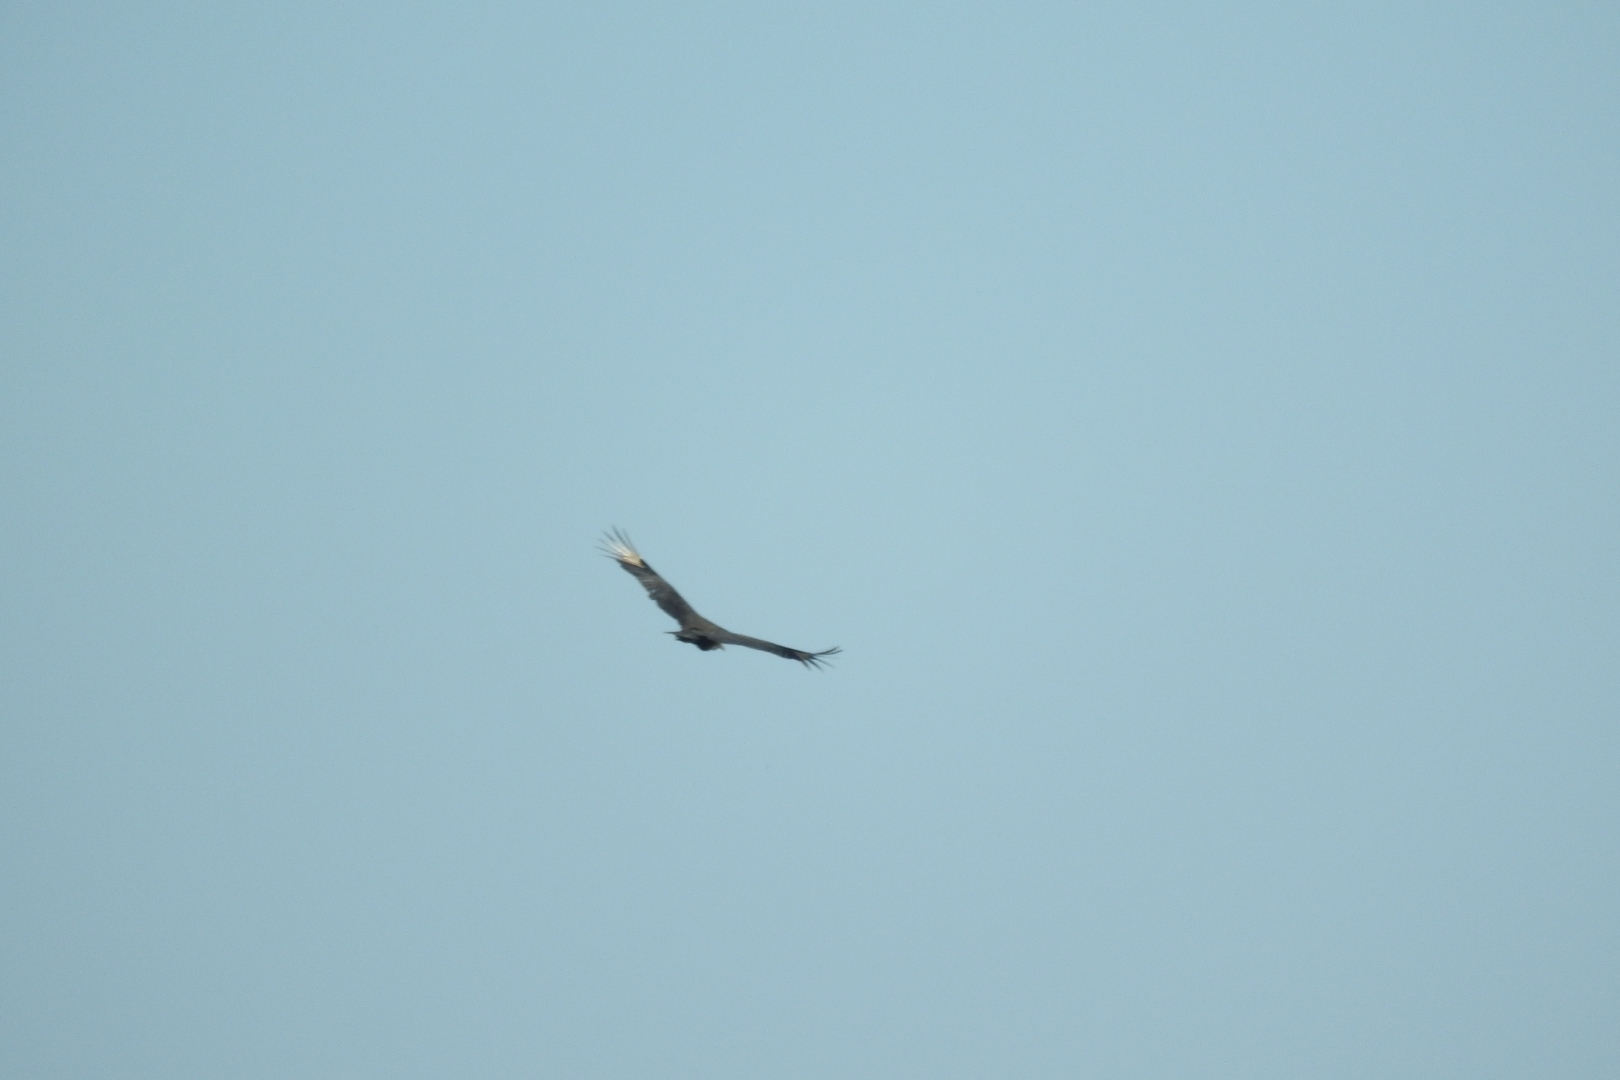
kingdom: Animalia
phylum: Chordata
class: Aves
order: Accipitriformes
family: Cathartidae
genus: Coragyps
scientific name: Coragyps atratus
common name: Black vulture
